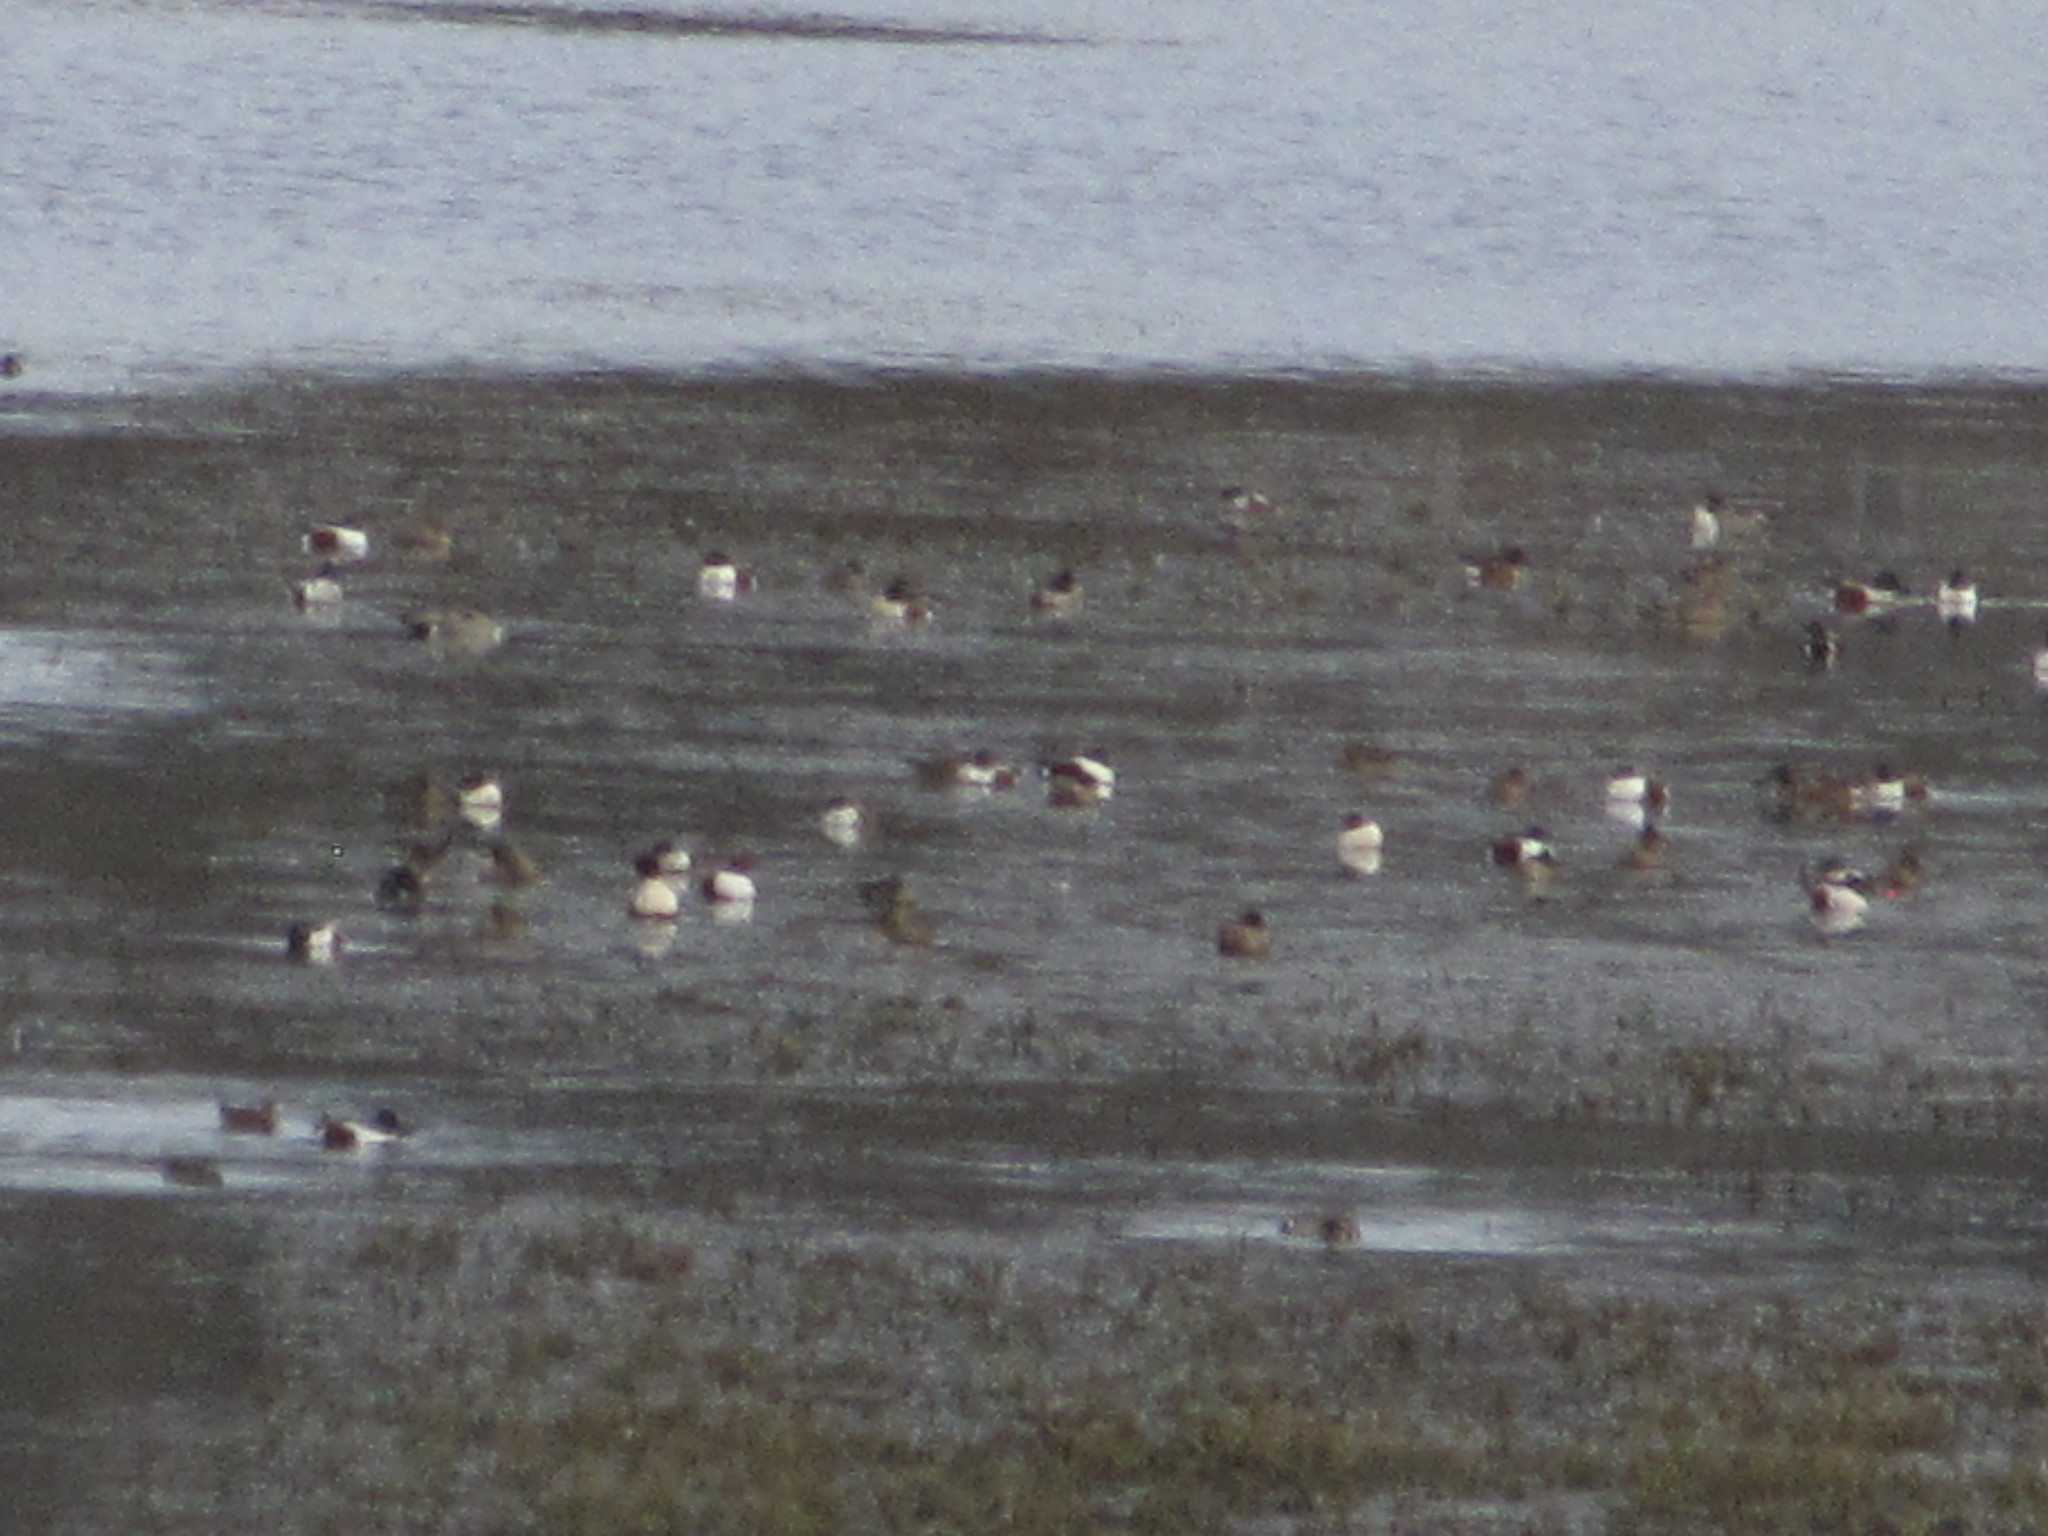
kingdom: Animalia
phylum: Chordata
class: Aves
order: Anseriformes
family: Anatidae
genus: Spatula
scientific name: Spatula clypeata
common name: Northern shoveler
